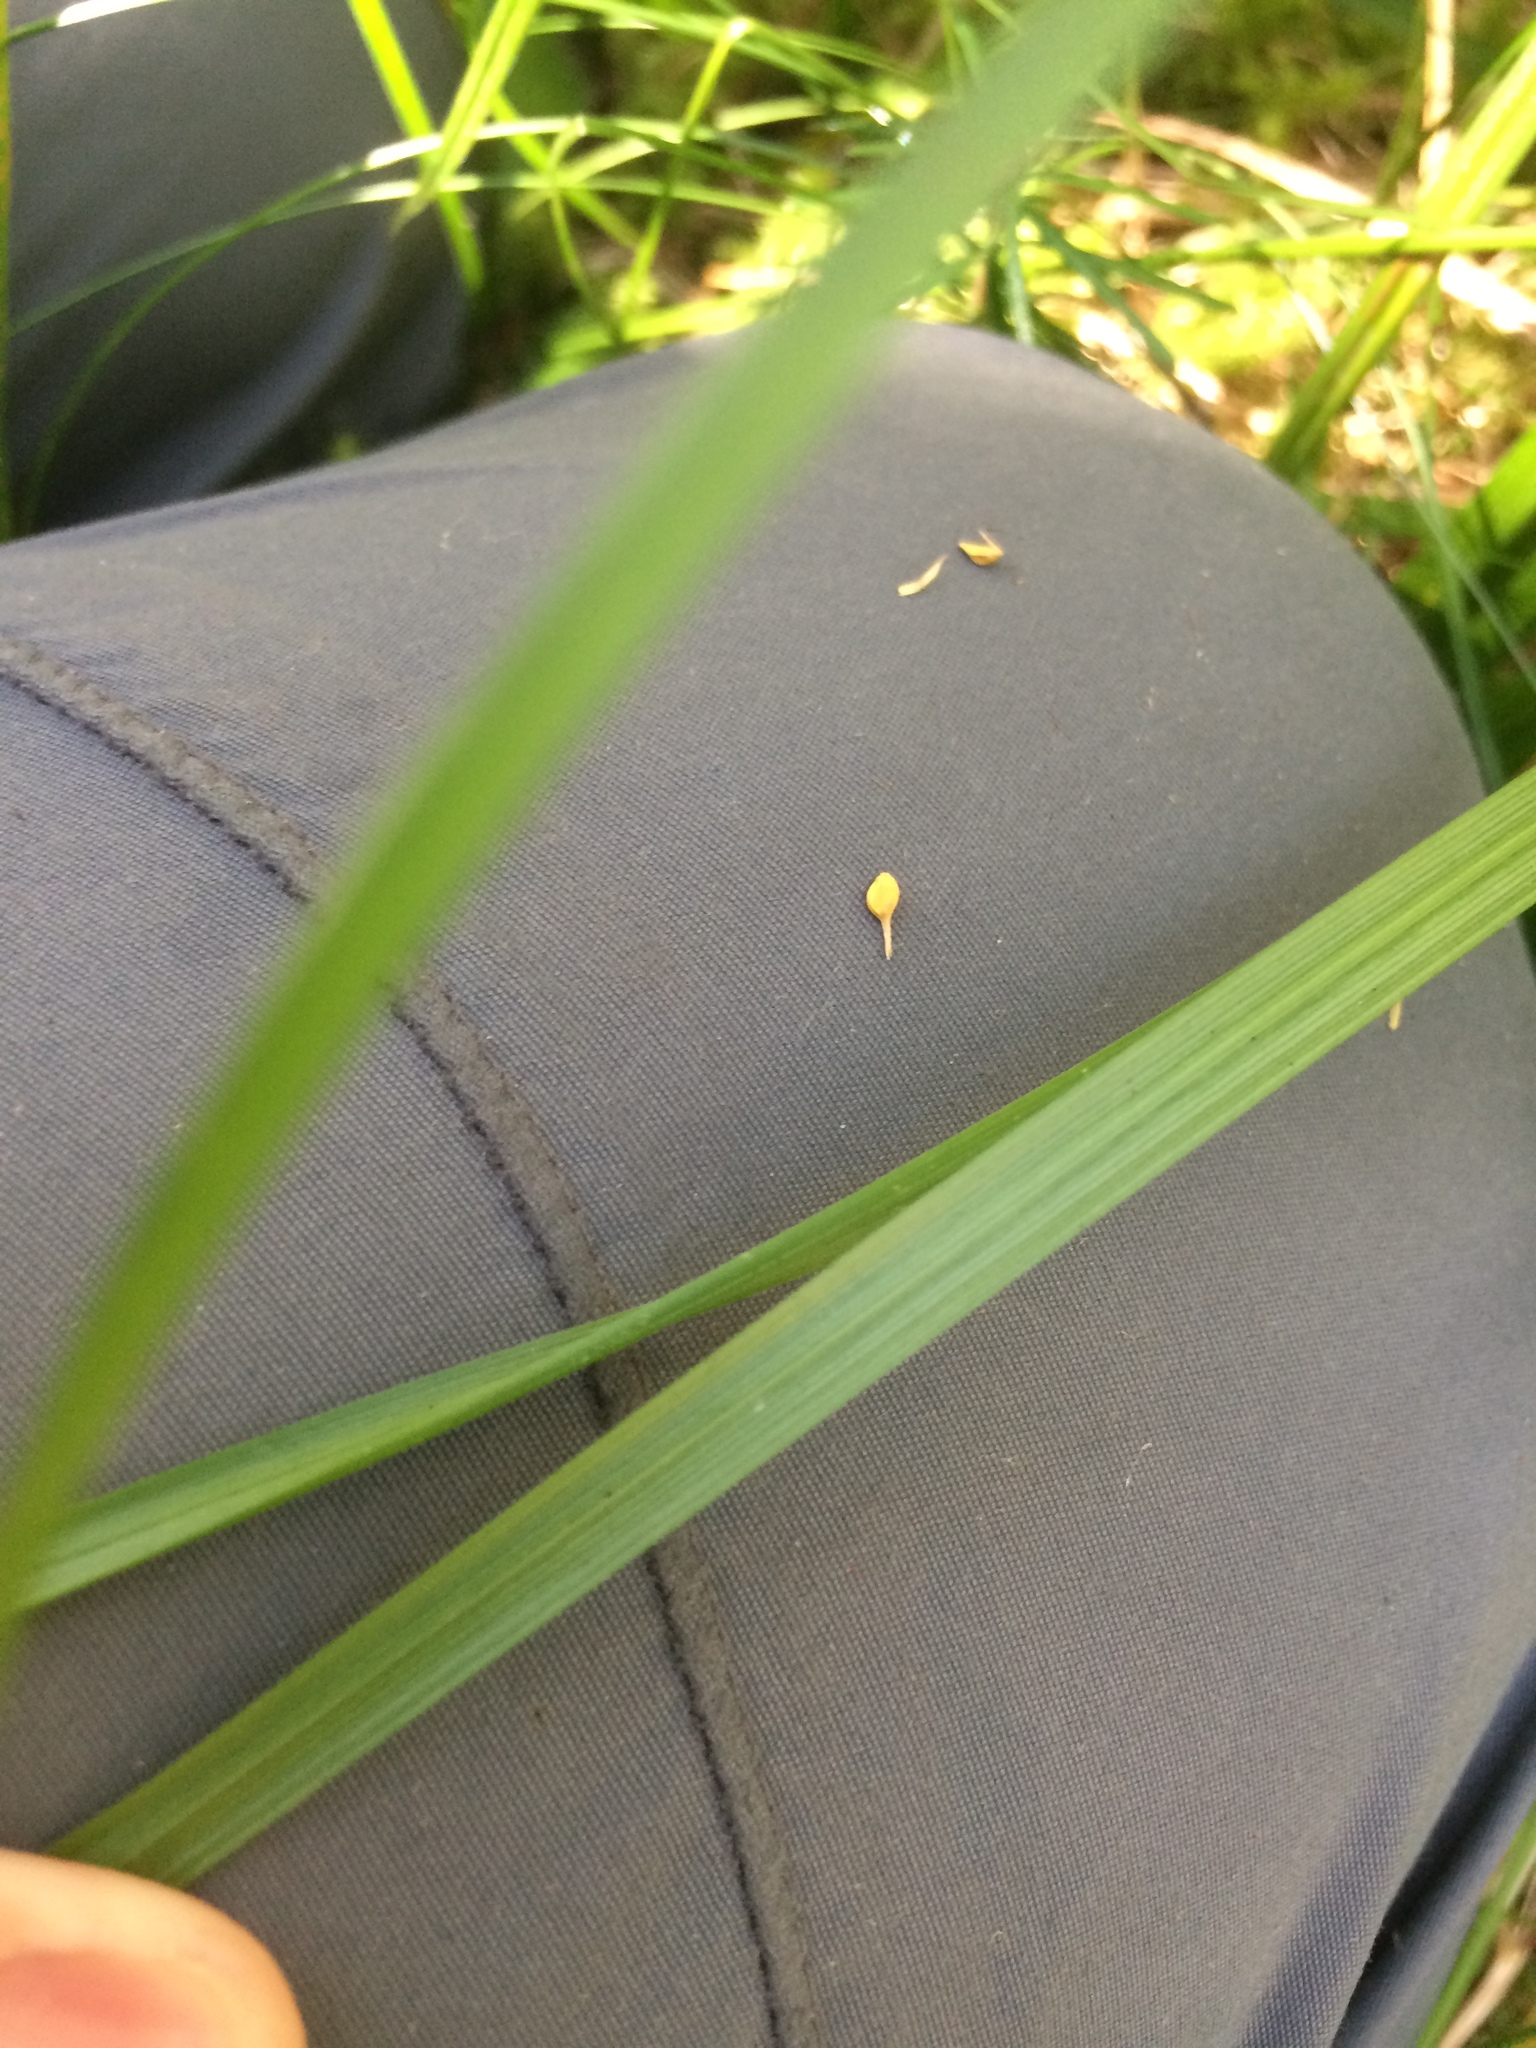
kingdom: Plantae
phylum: Tracheophyta
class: Liliopsida
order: Poales
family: Cyperaceae
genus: Carex
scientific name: Carex flava
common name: Large yellow-sedge
